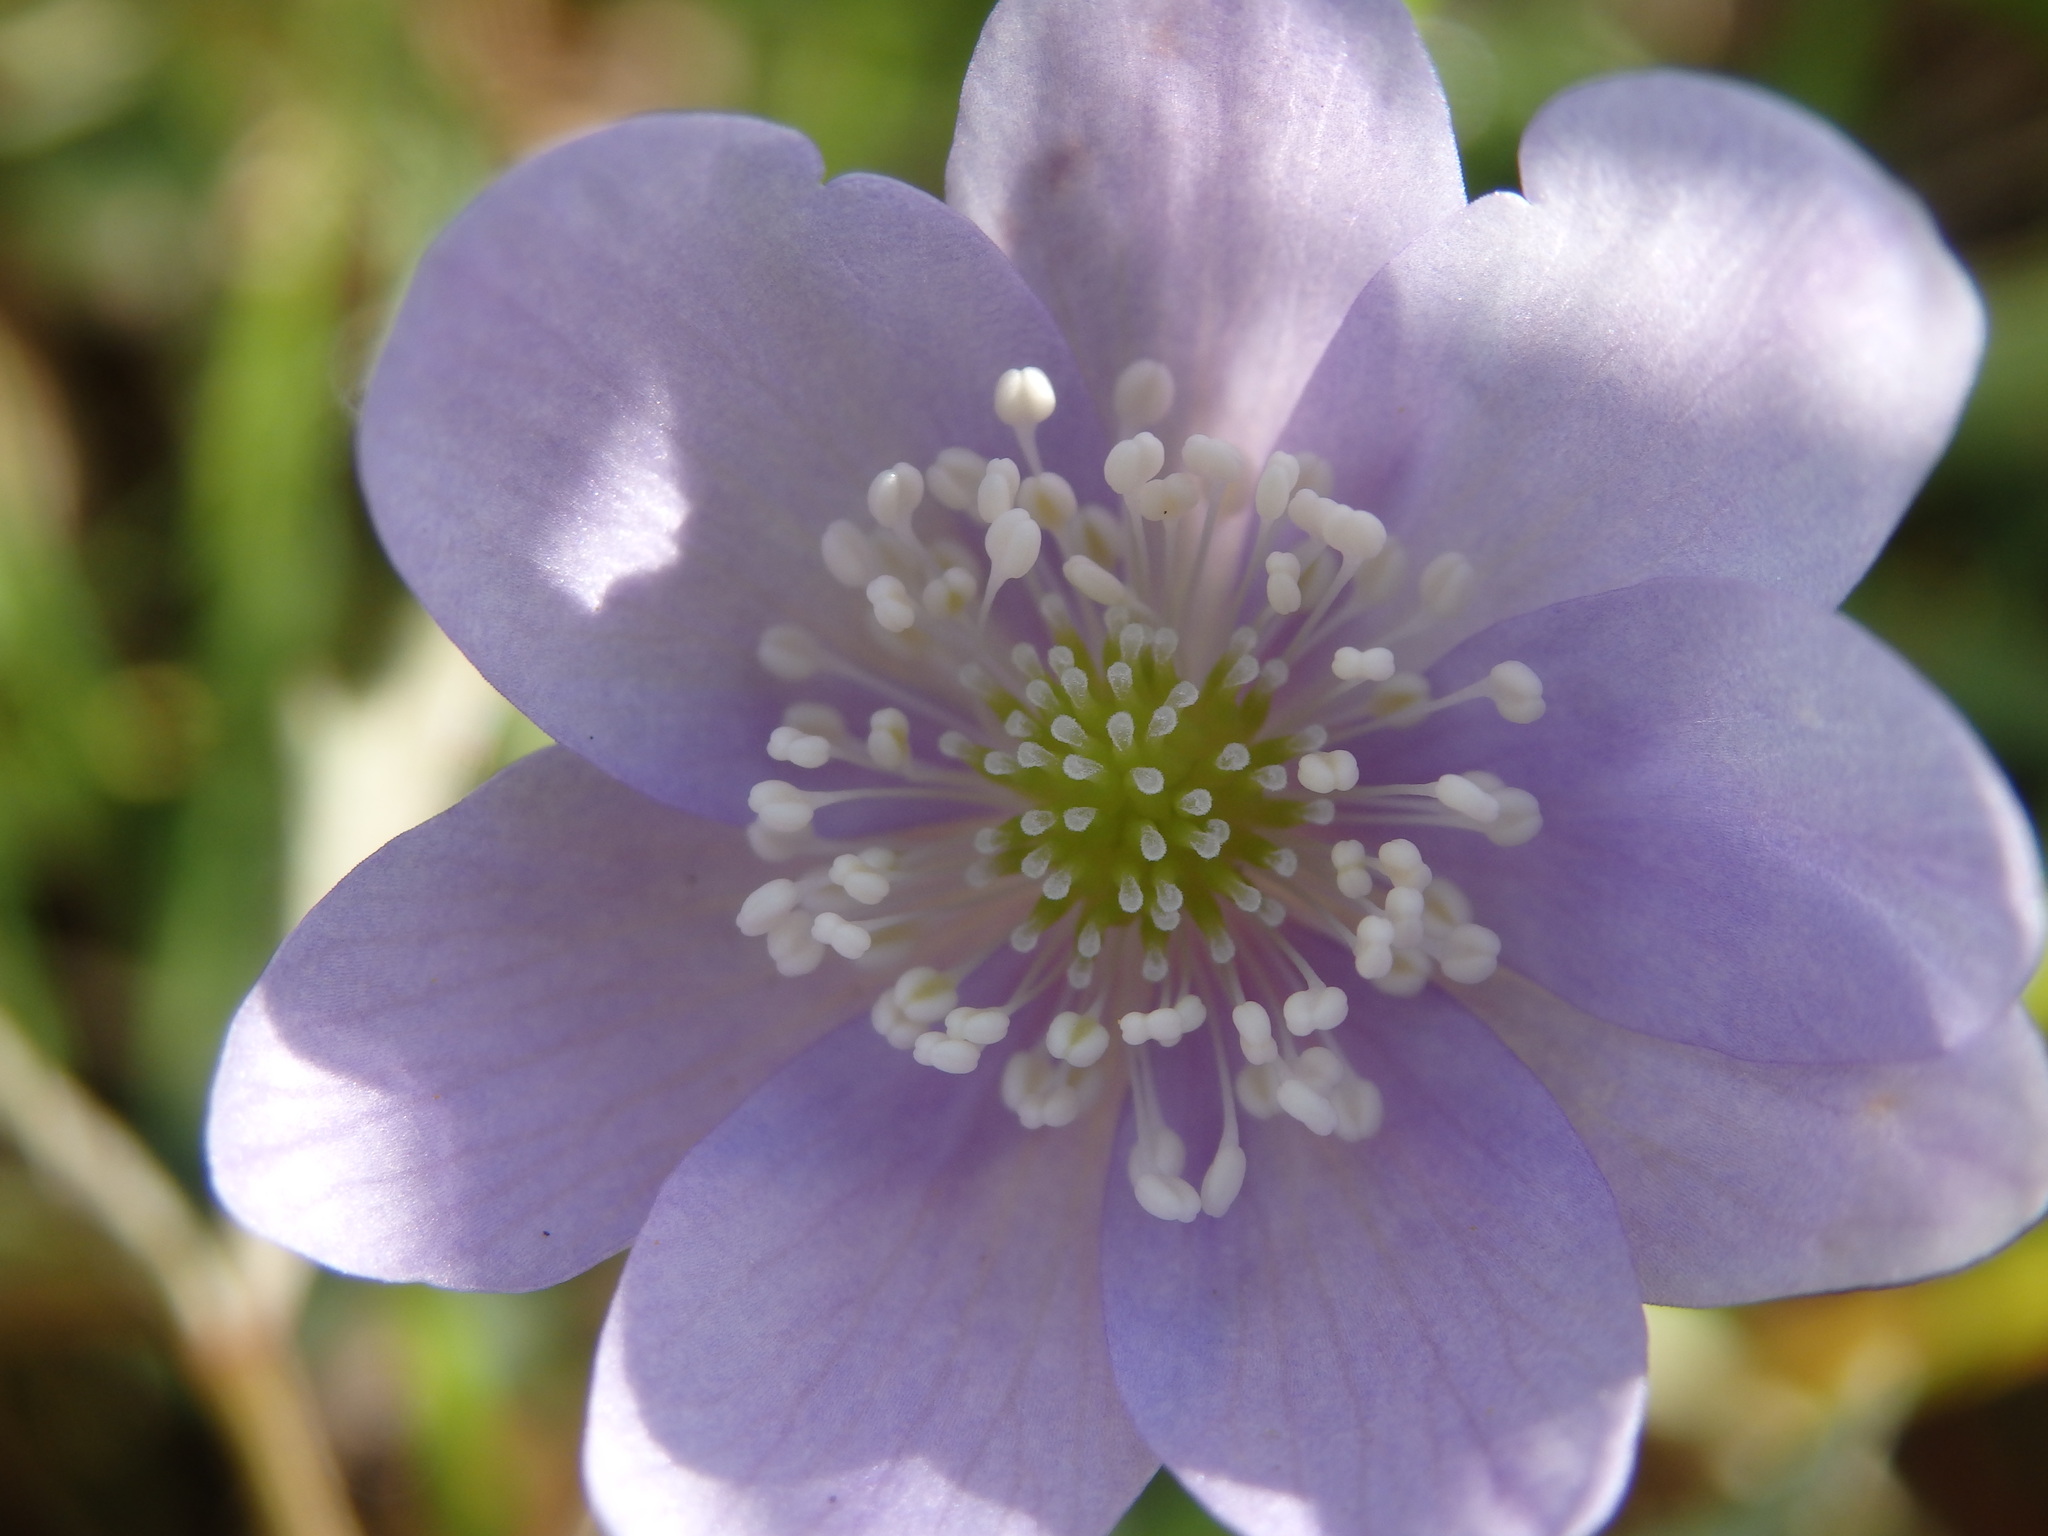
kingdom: Plantae
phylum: Tracheophyta
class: Magnoliopsida
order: Ranunculales
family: Ranunculaceae
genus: Anemone
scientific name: Anemone trifolia
